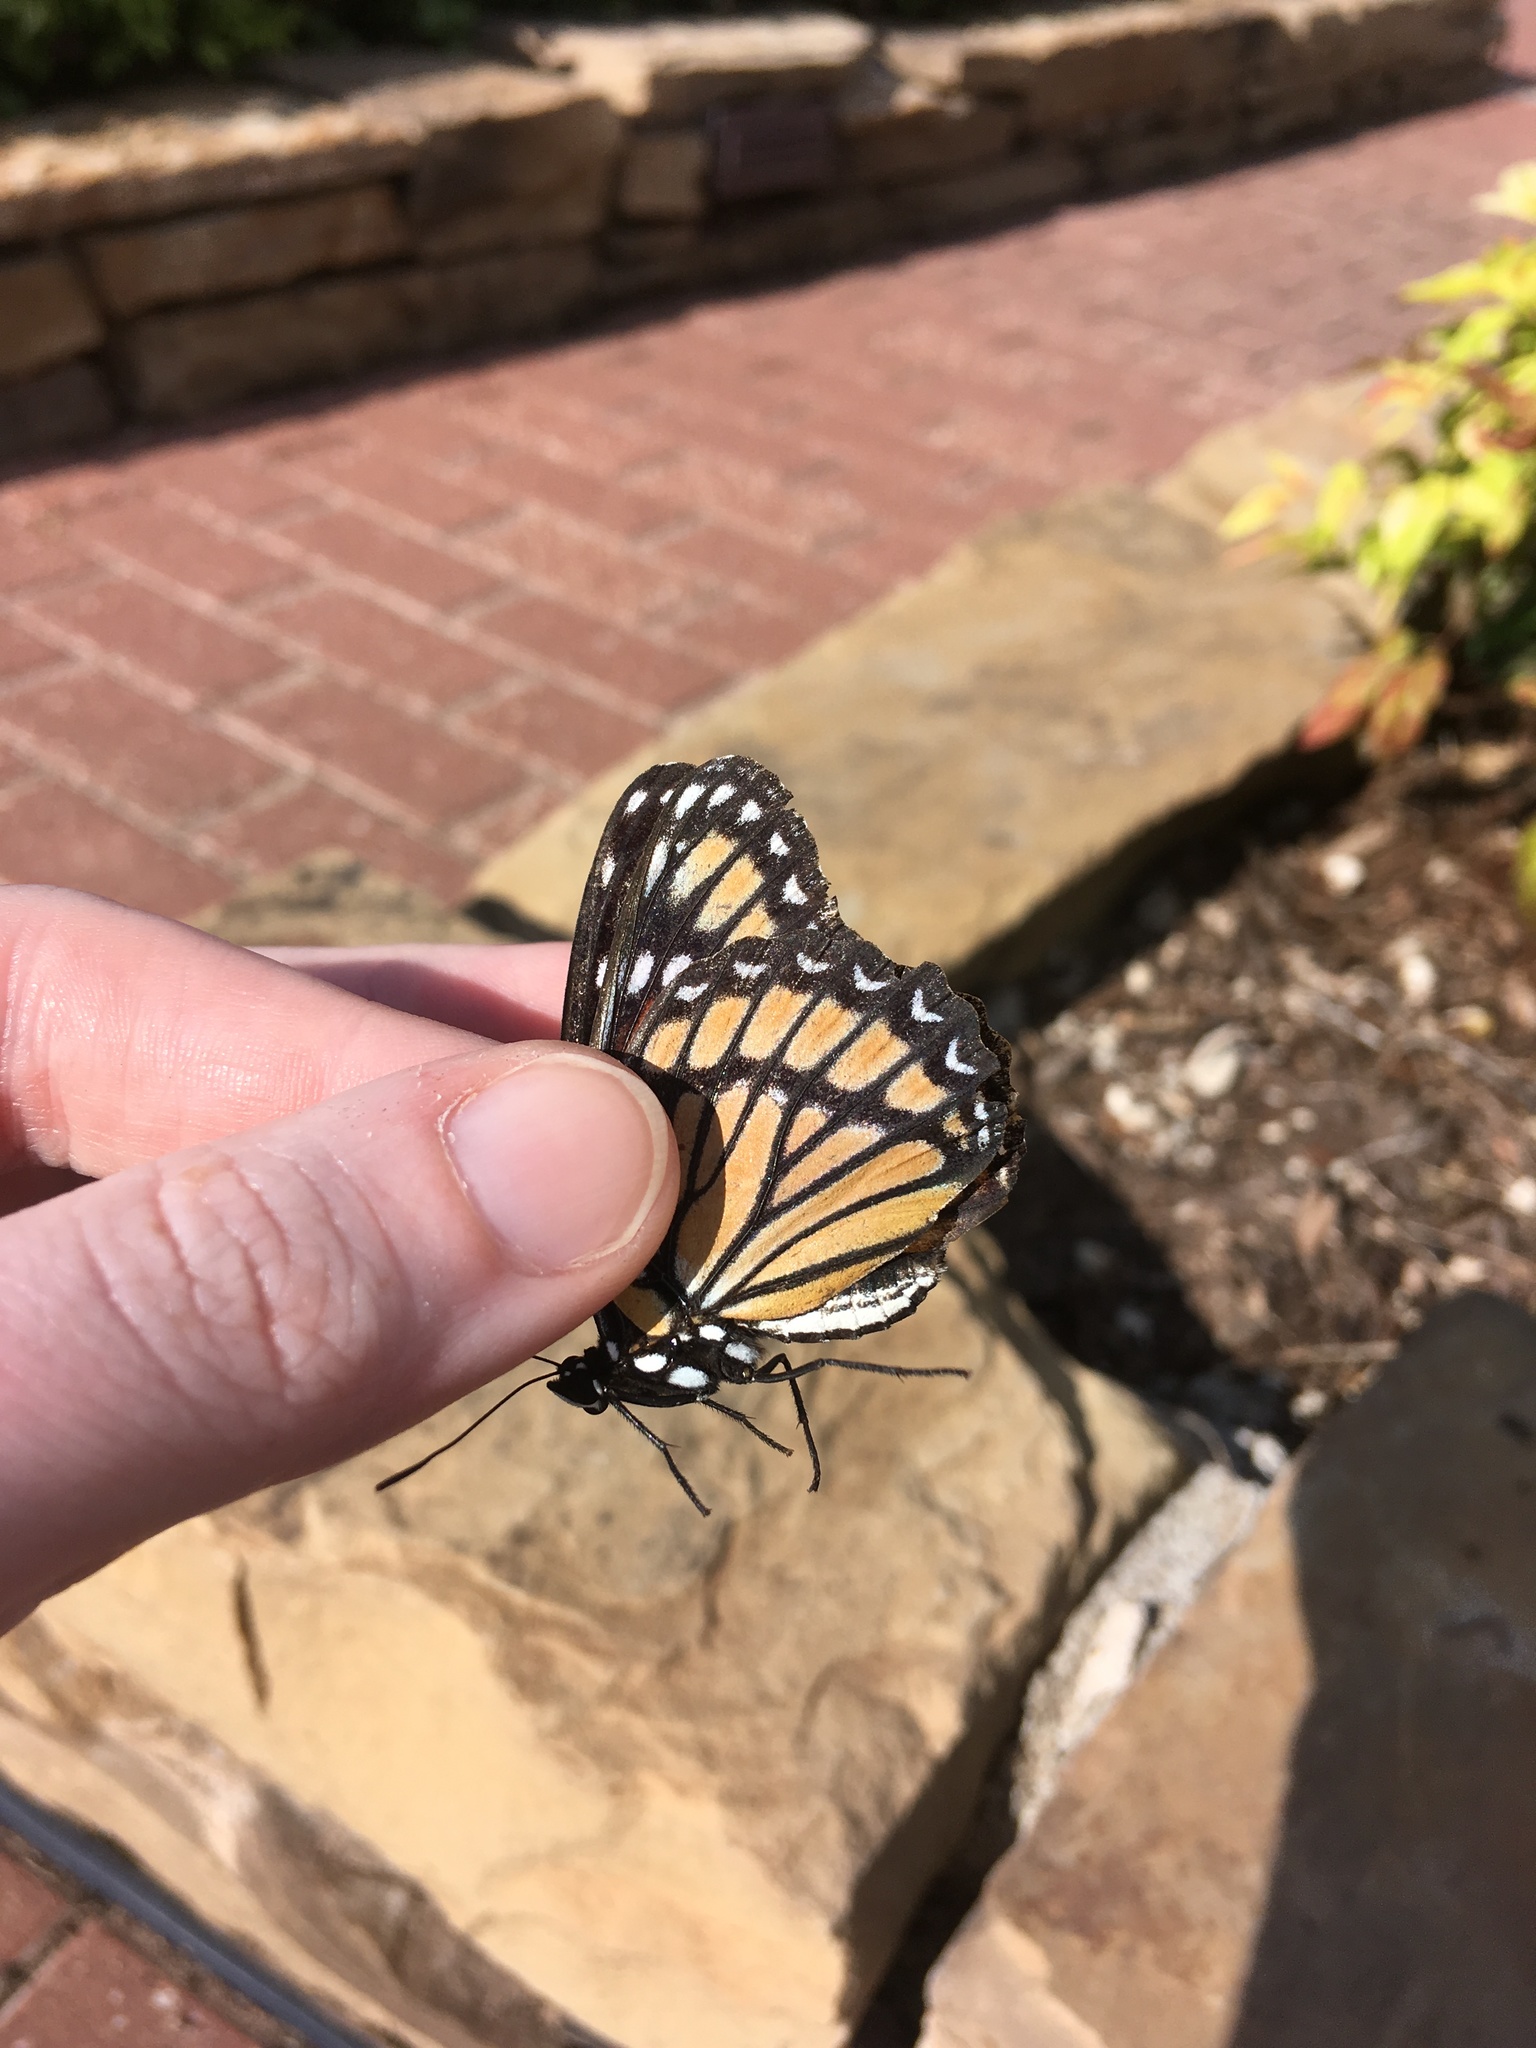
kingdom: Animalia
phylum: Arthropoda
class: Insecta
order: Lepidoptera
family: Nymphalidae
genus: Limenitis
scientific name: Limenitis archippus
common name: Viceroy
